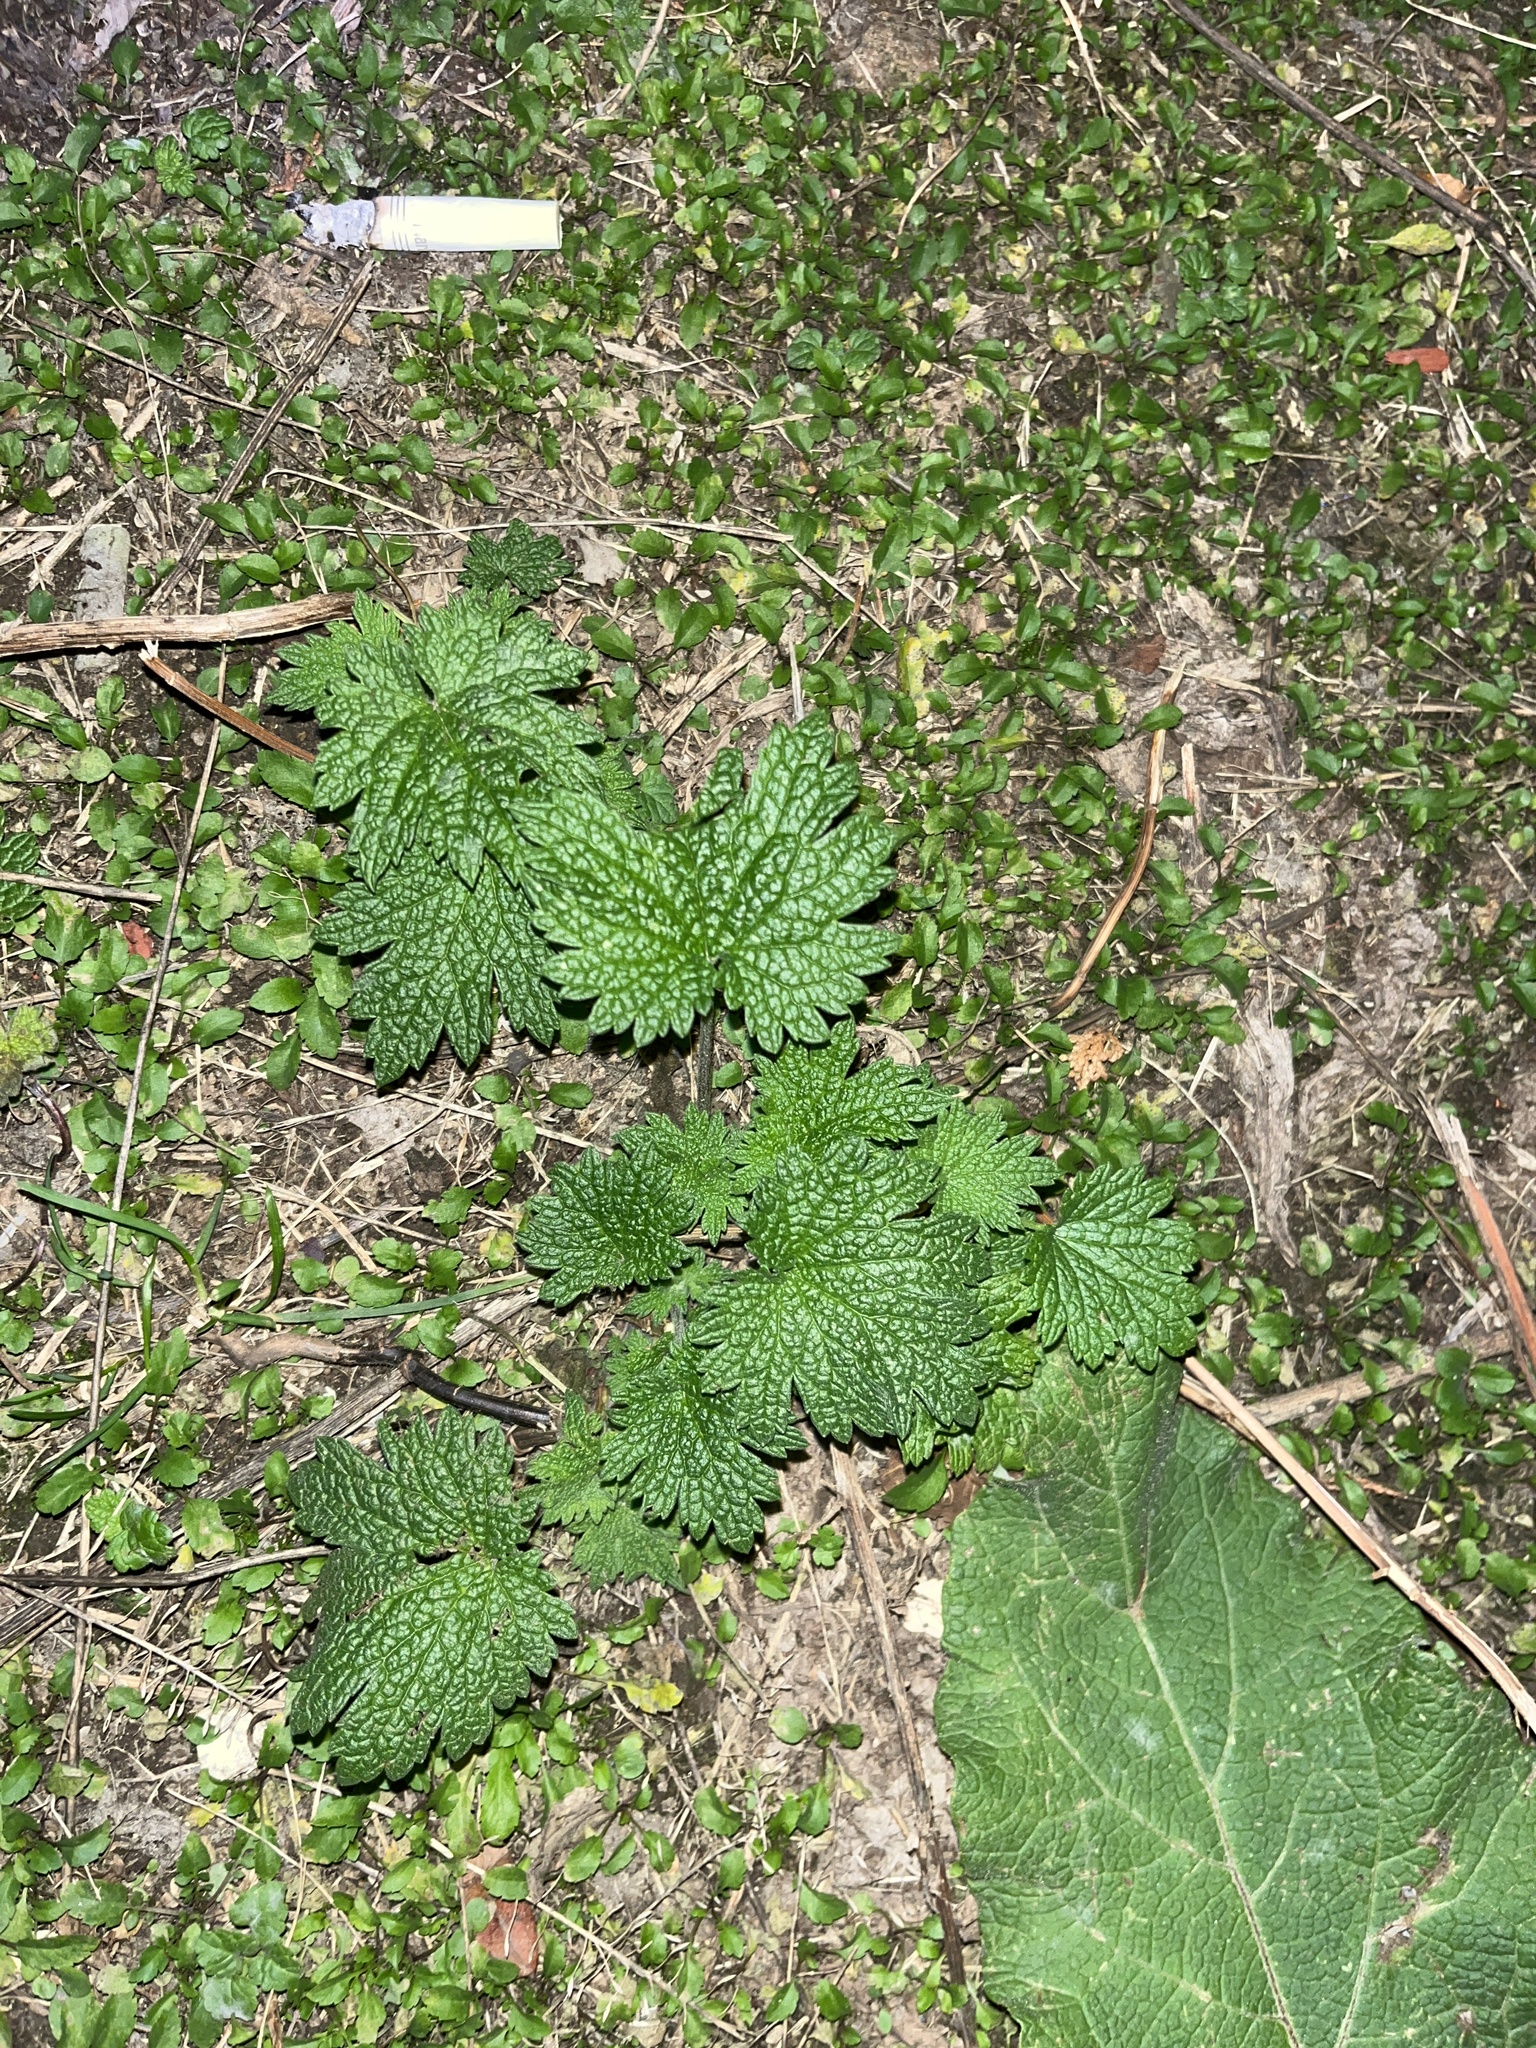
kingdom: Plantae
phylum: Tracheophyta
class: Magnoliopsida
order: Lamiales
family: Lamiaceae
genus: Leonurus
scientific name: Leonurus cardiaca
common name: Motherwort
